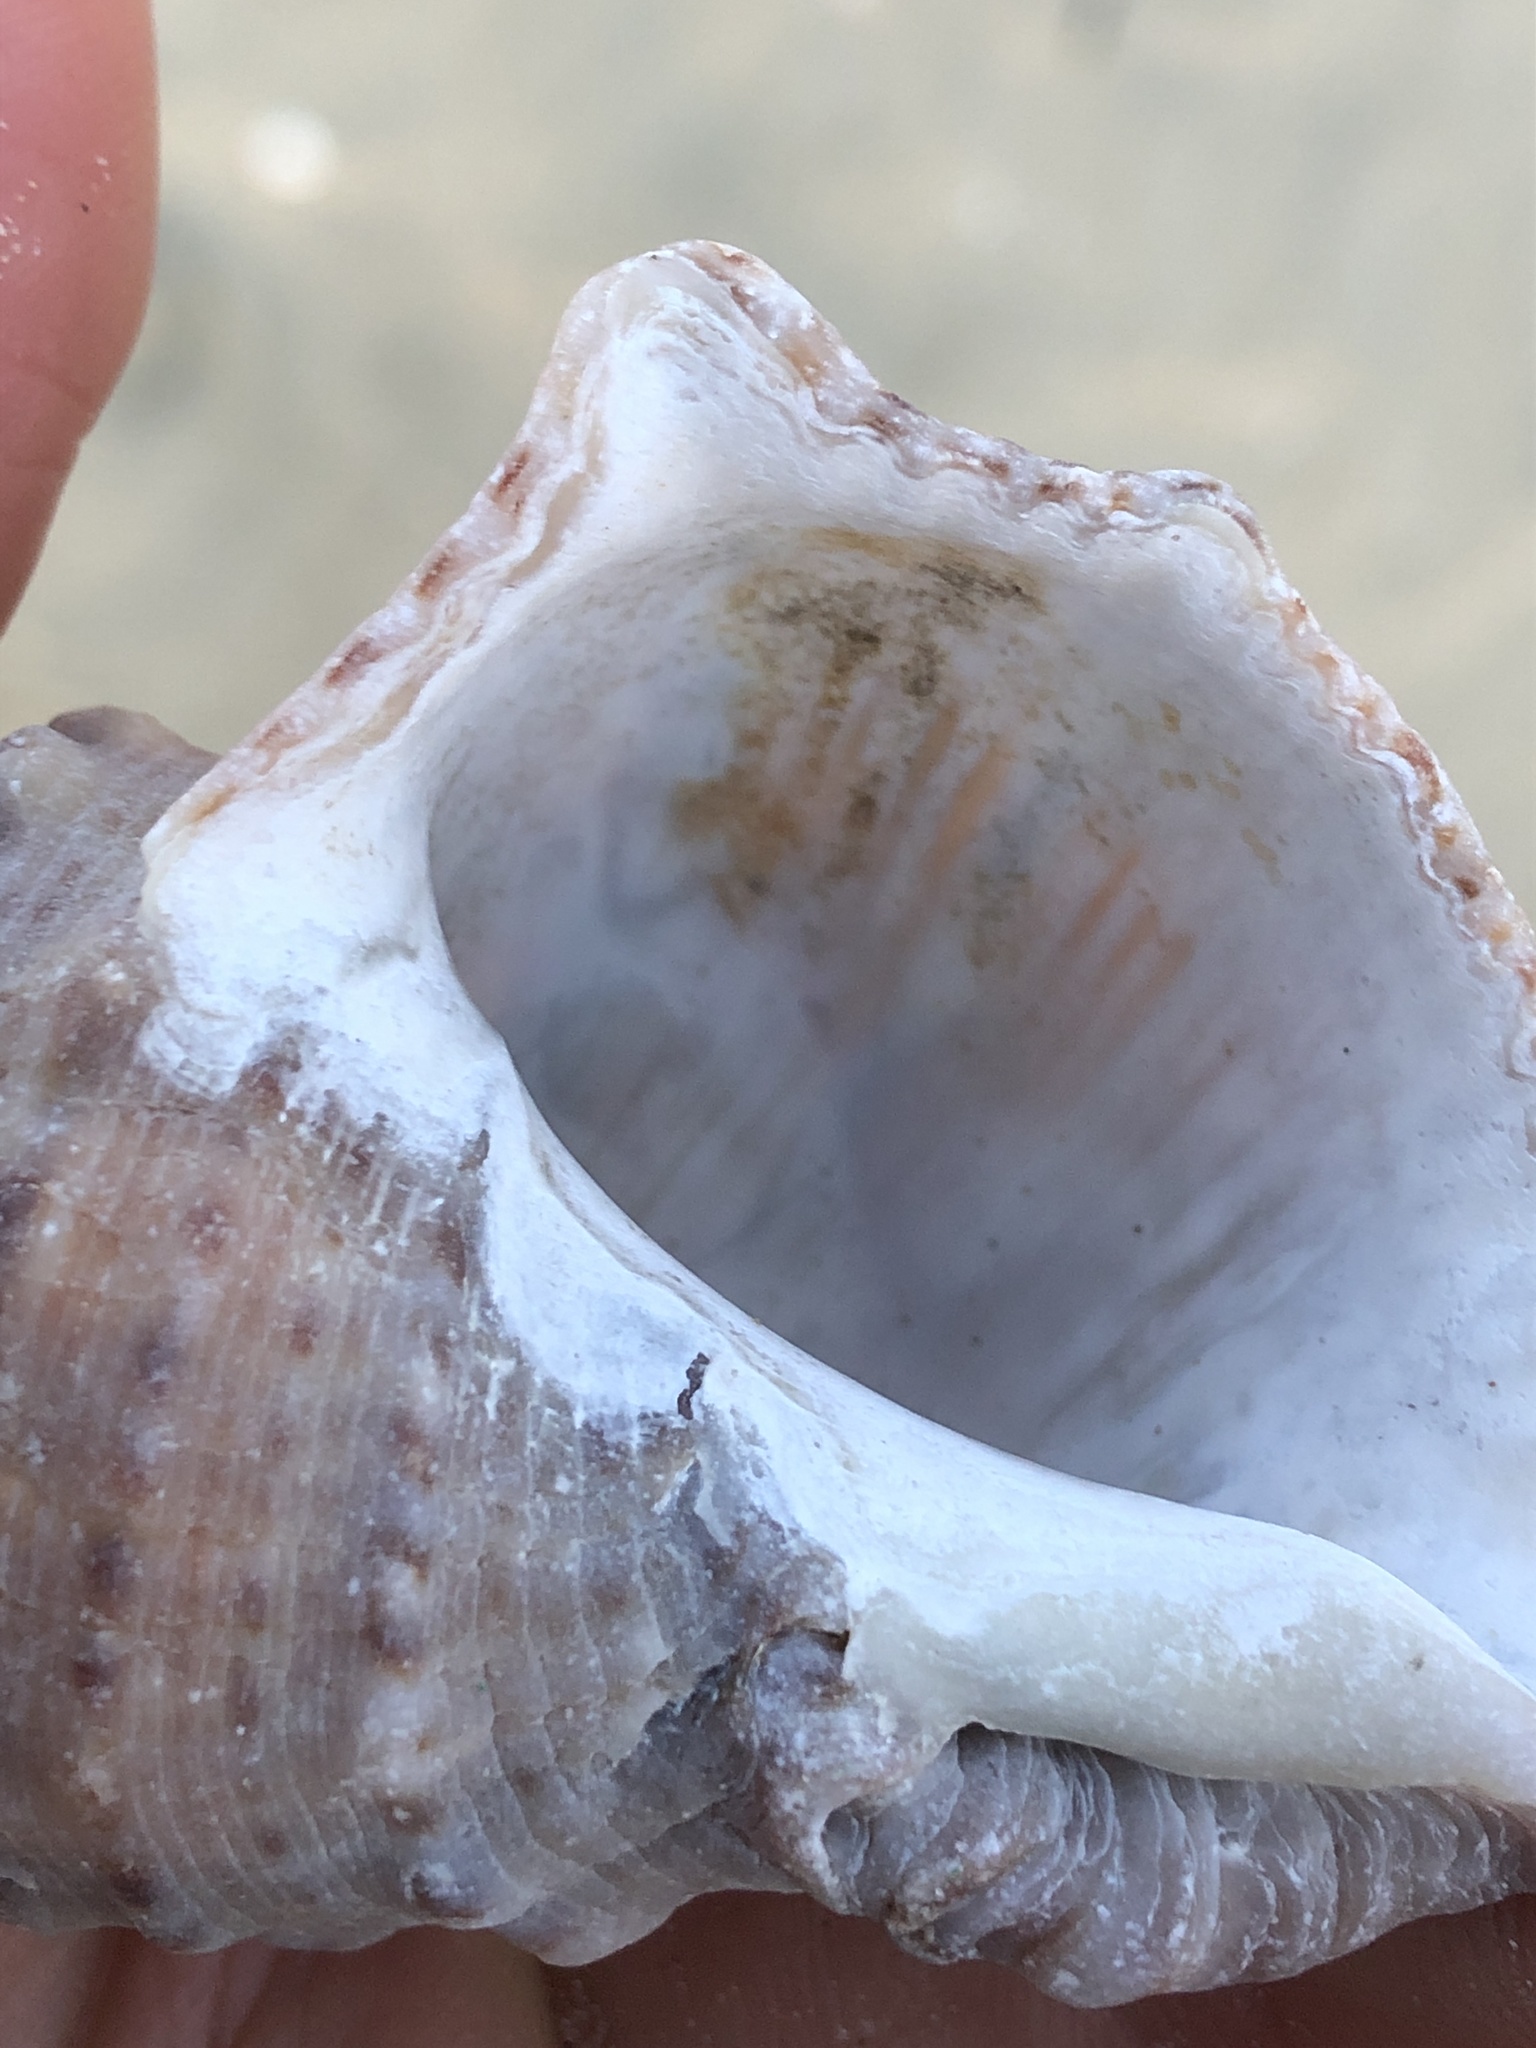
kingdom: Animalia
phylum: Mollusca
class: Gastropoda
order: Neogastropoda
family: Muricidae
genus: Rapana
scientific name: Rapana venosa
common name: Veined rapa whelk
